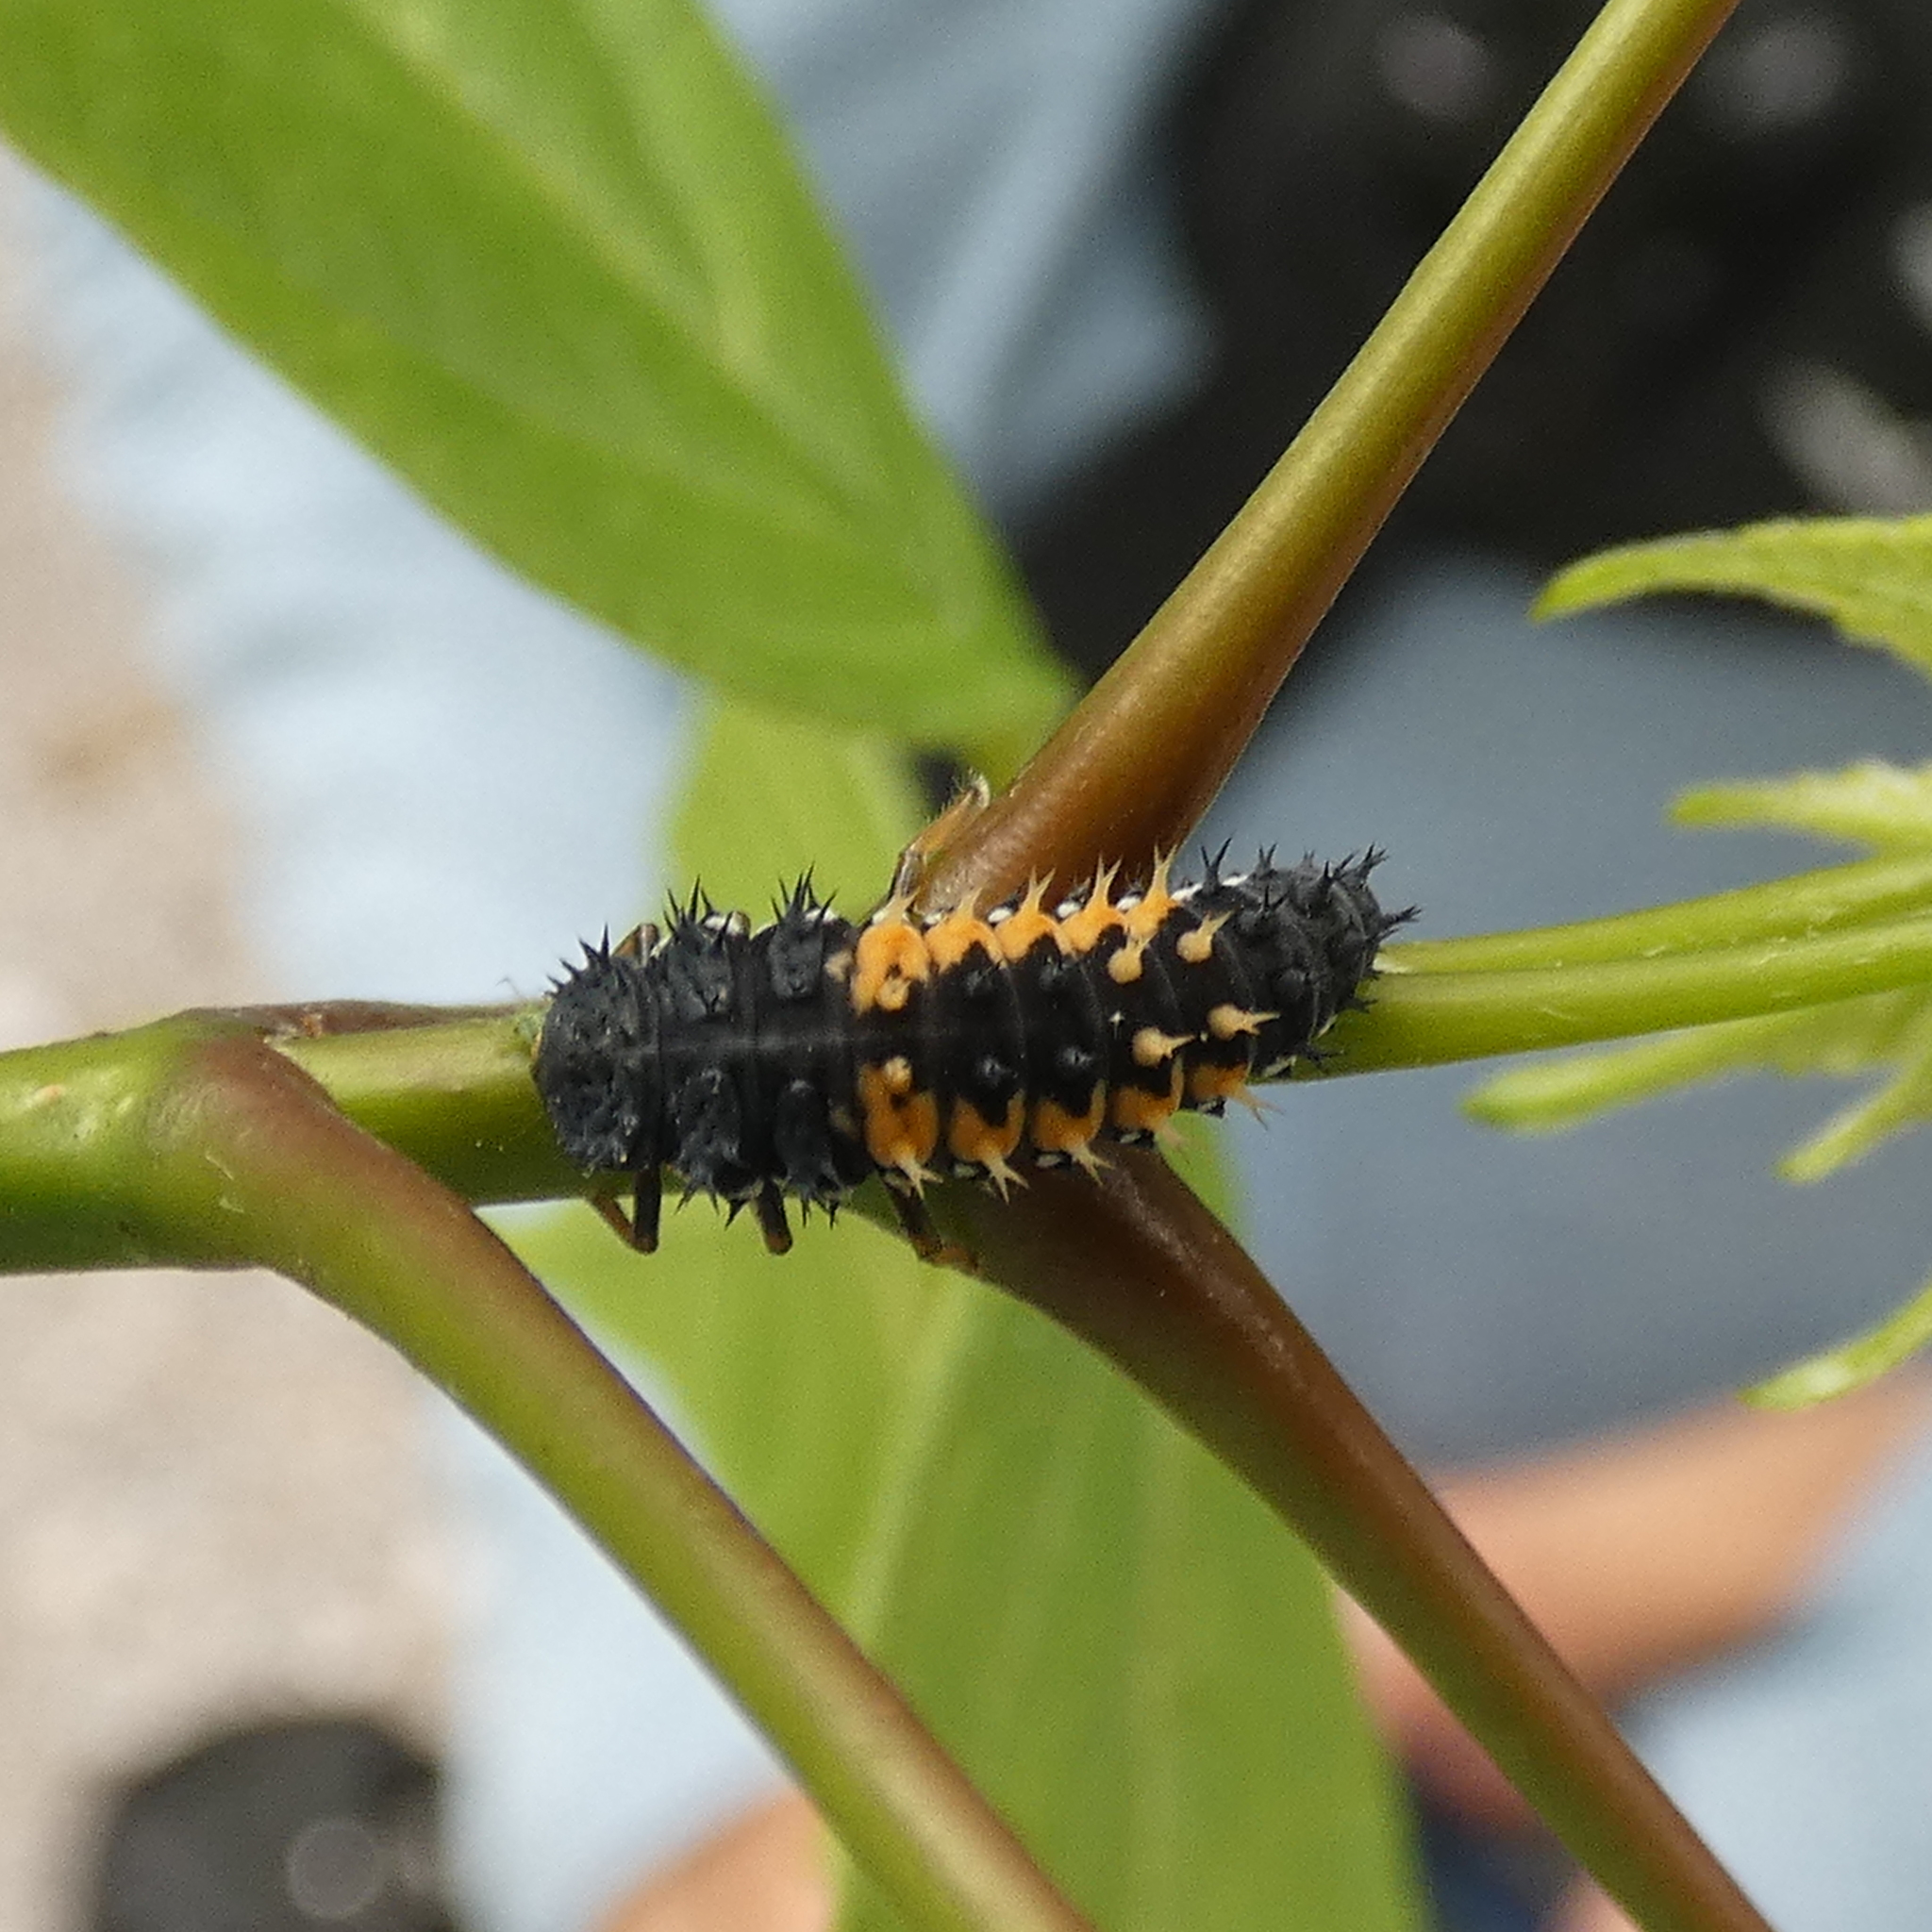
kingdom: Animalia
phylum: Arthropoda
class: Insecta
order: Coleoptera
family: Coccinellidae
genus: Harmonia
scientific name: Harmonia axyridis
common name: Harlequin ladybird
